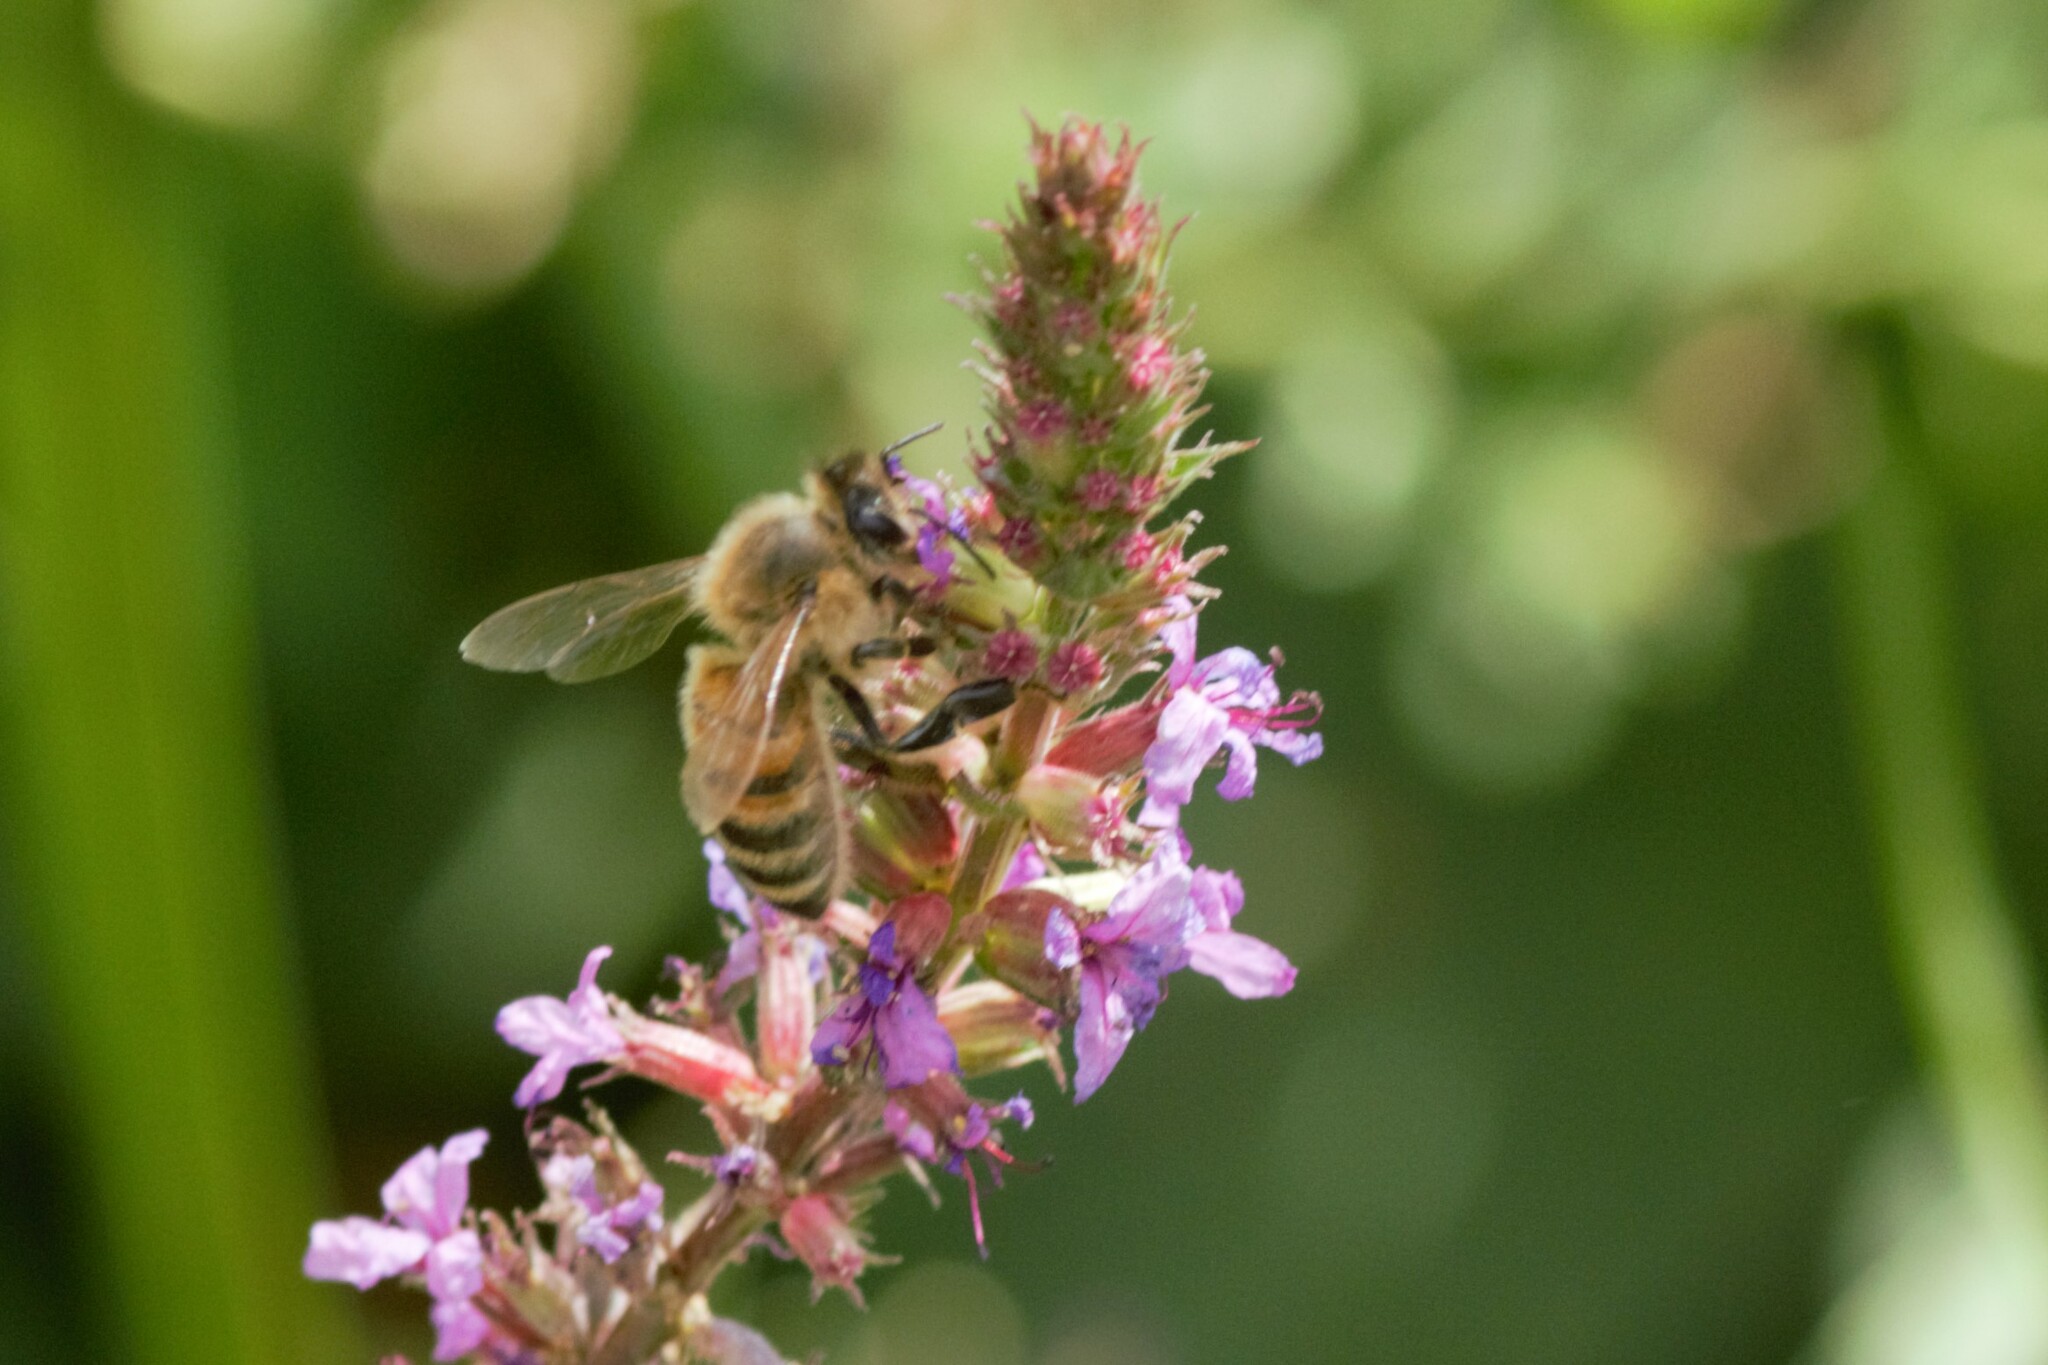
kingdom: Animalia
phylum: Arthropoda
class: Insecta
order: Hymenoptera
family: Apidae
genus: Apis
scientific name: Apis mellifera
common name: Honey bee
